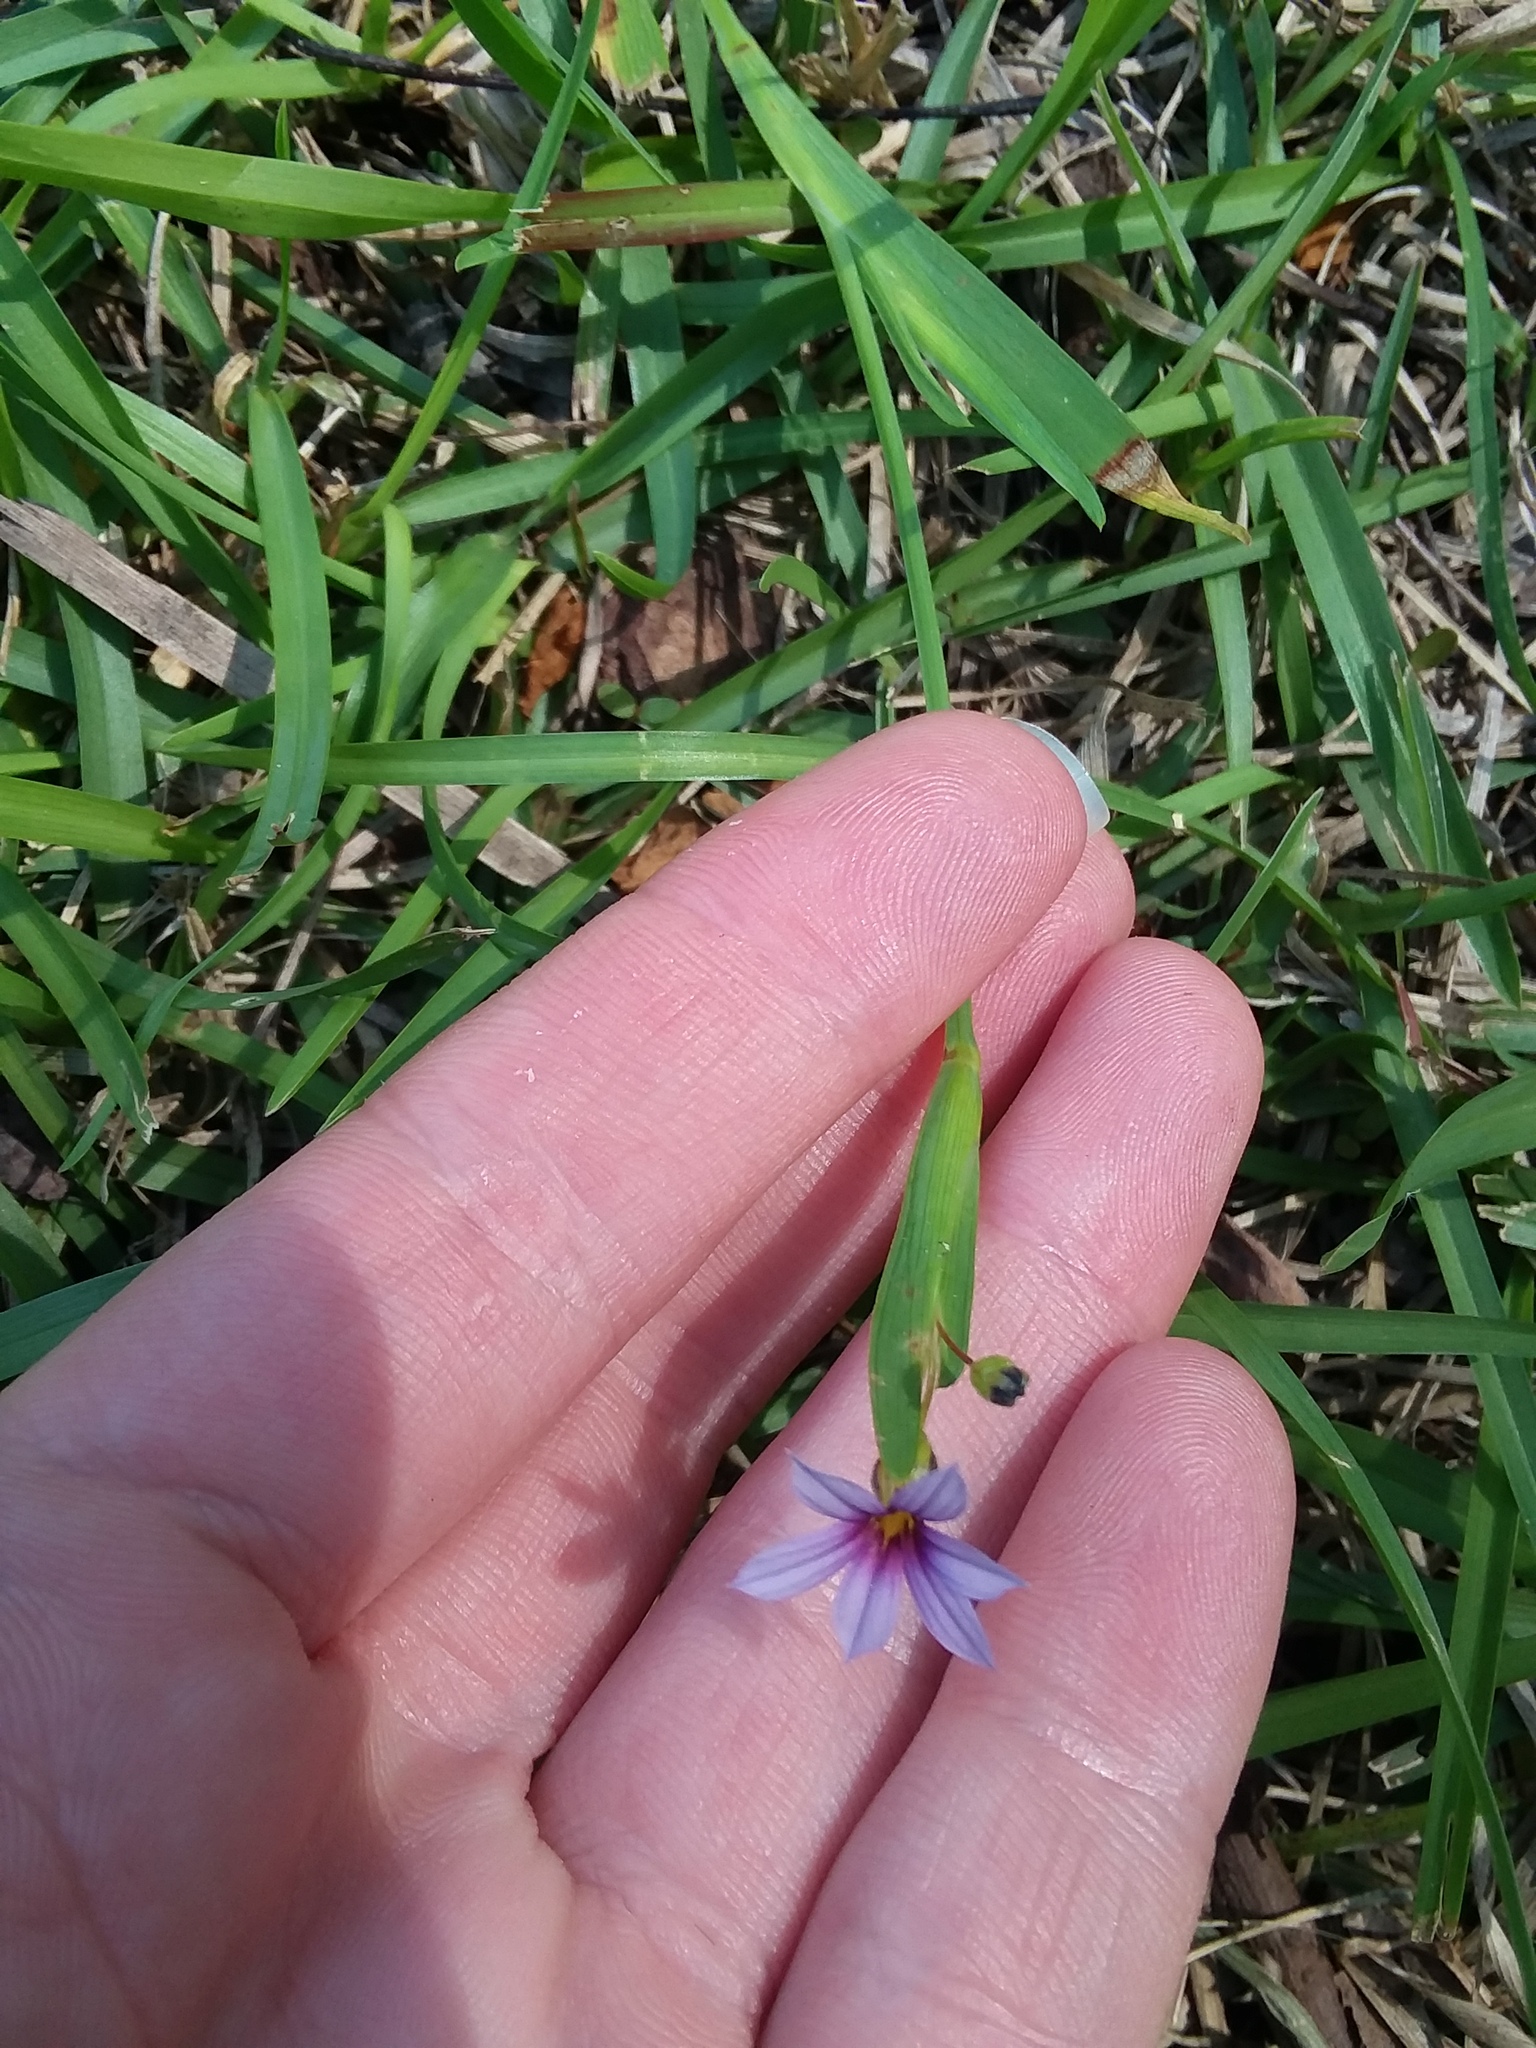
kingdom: Plantae
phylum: Tracheophyta
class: Liliopsida
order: Asparagales
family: Iridaceae
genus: Sisyrinchium
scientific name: Sisyrinchium micranthum
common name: Bermuda pigroot
